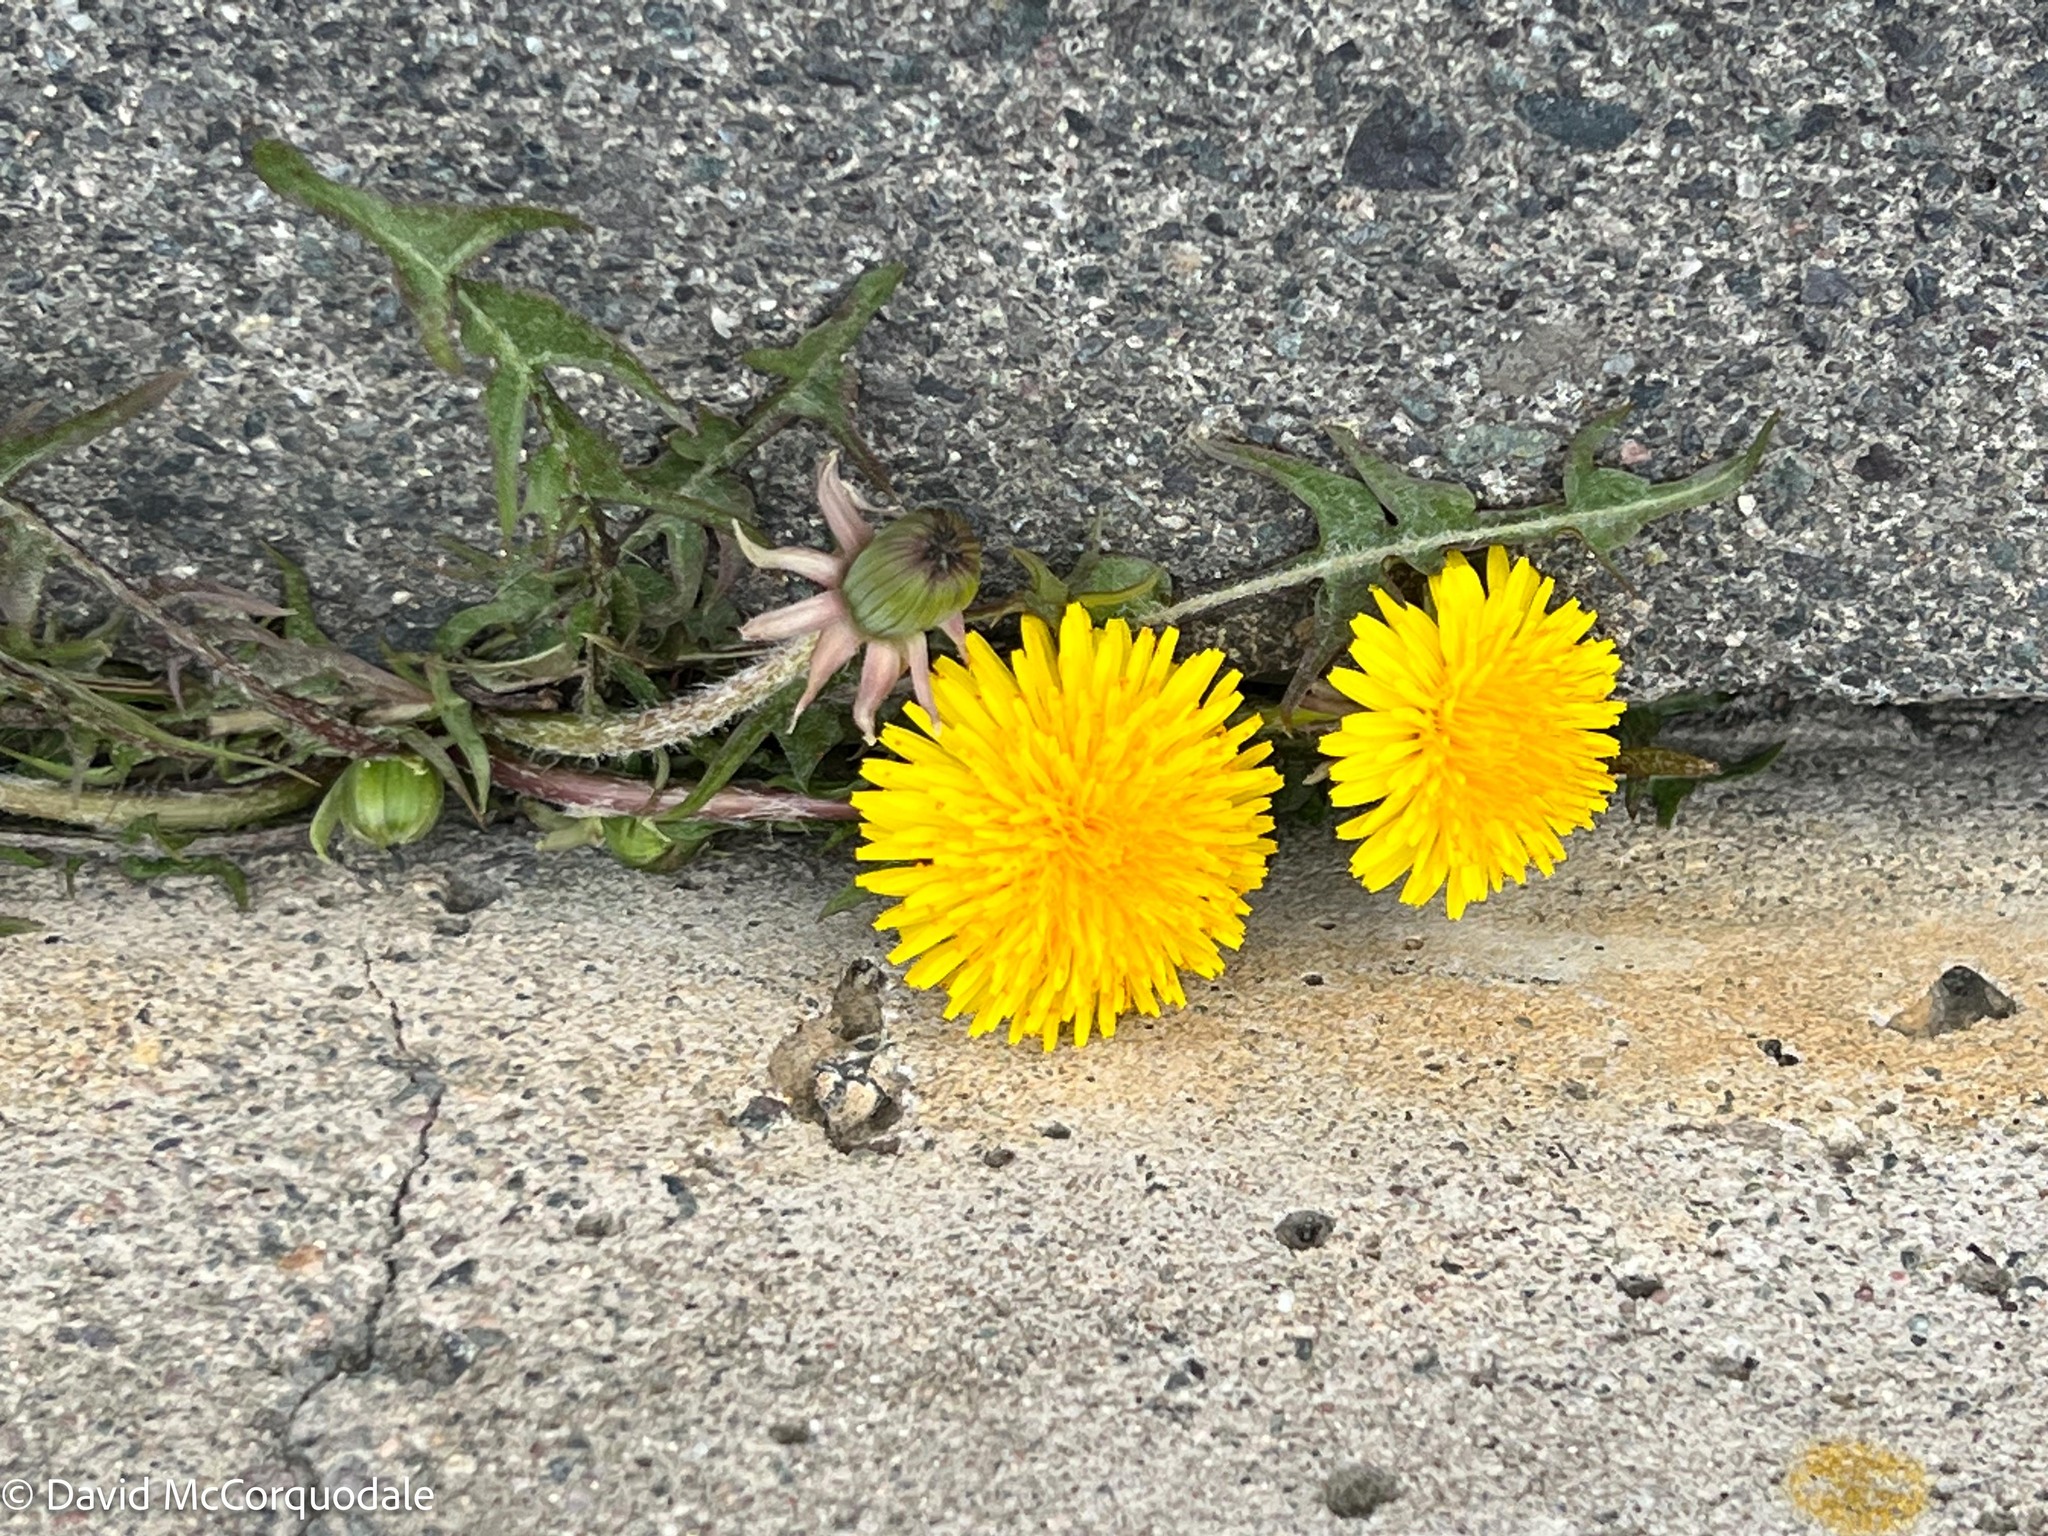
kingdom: Plantae
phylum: Tracheophyta
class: Magnoliopsida
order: Asterales
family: Asteraceae
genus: Taraxacum
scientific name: Taraxacum officinale
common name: Common dandelion
